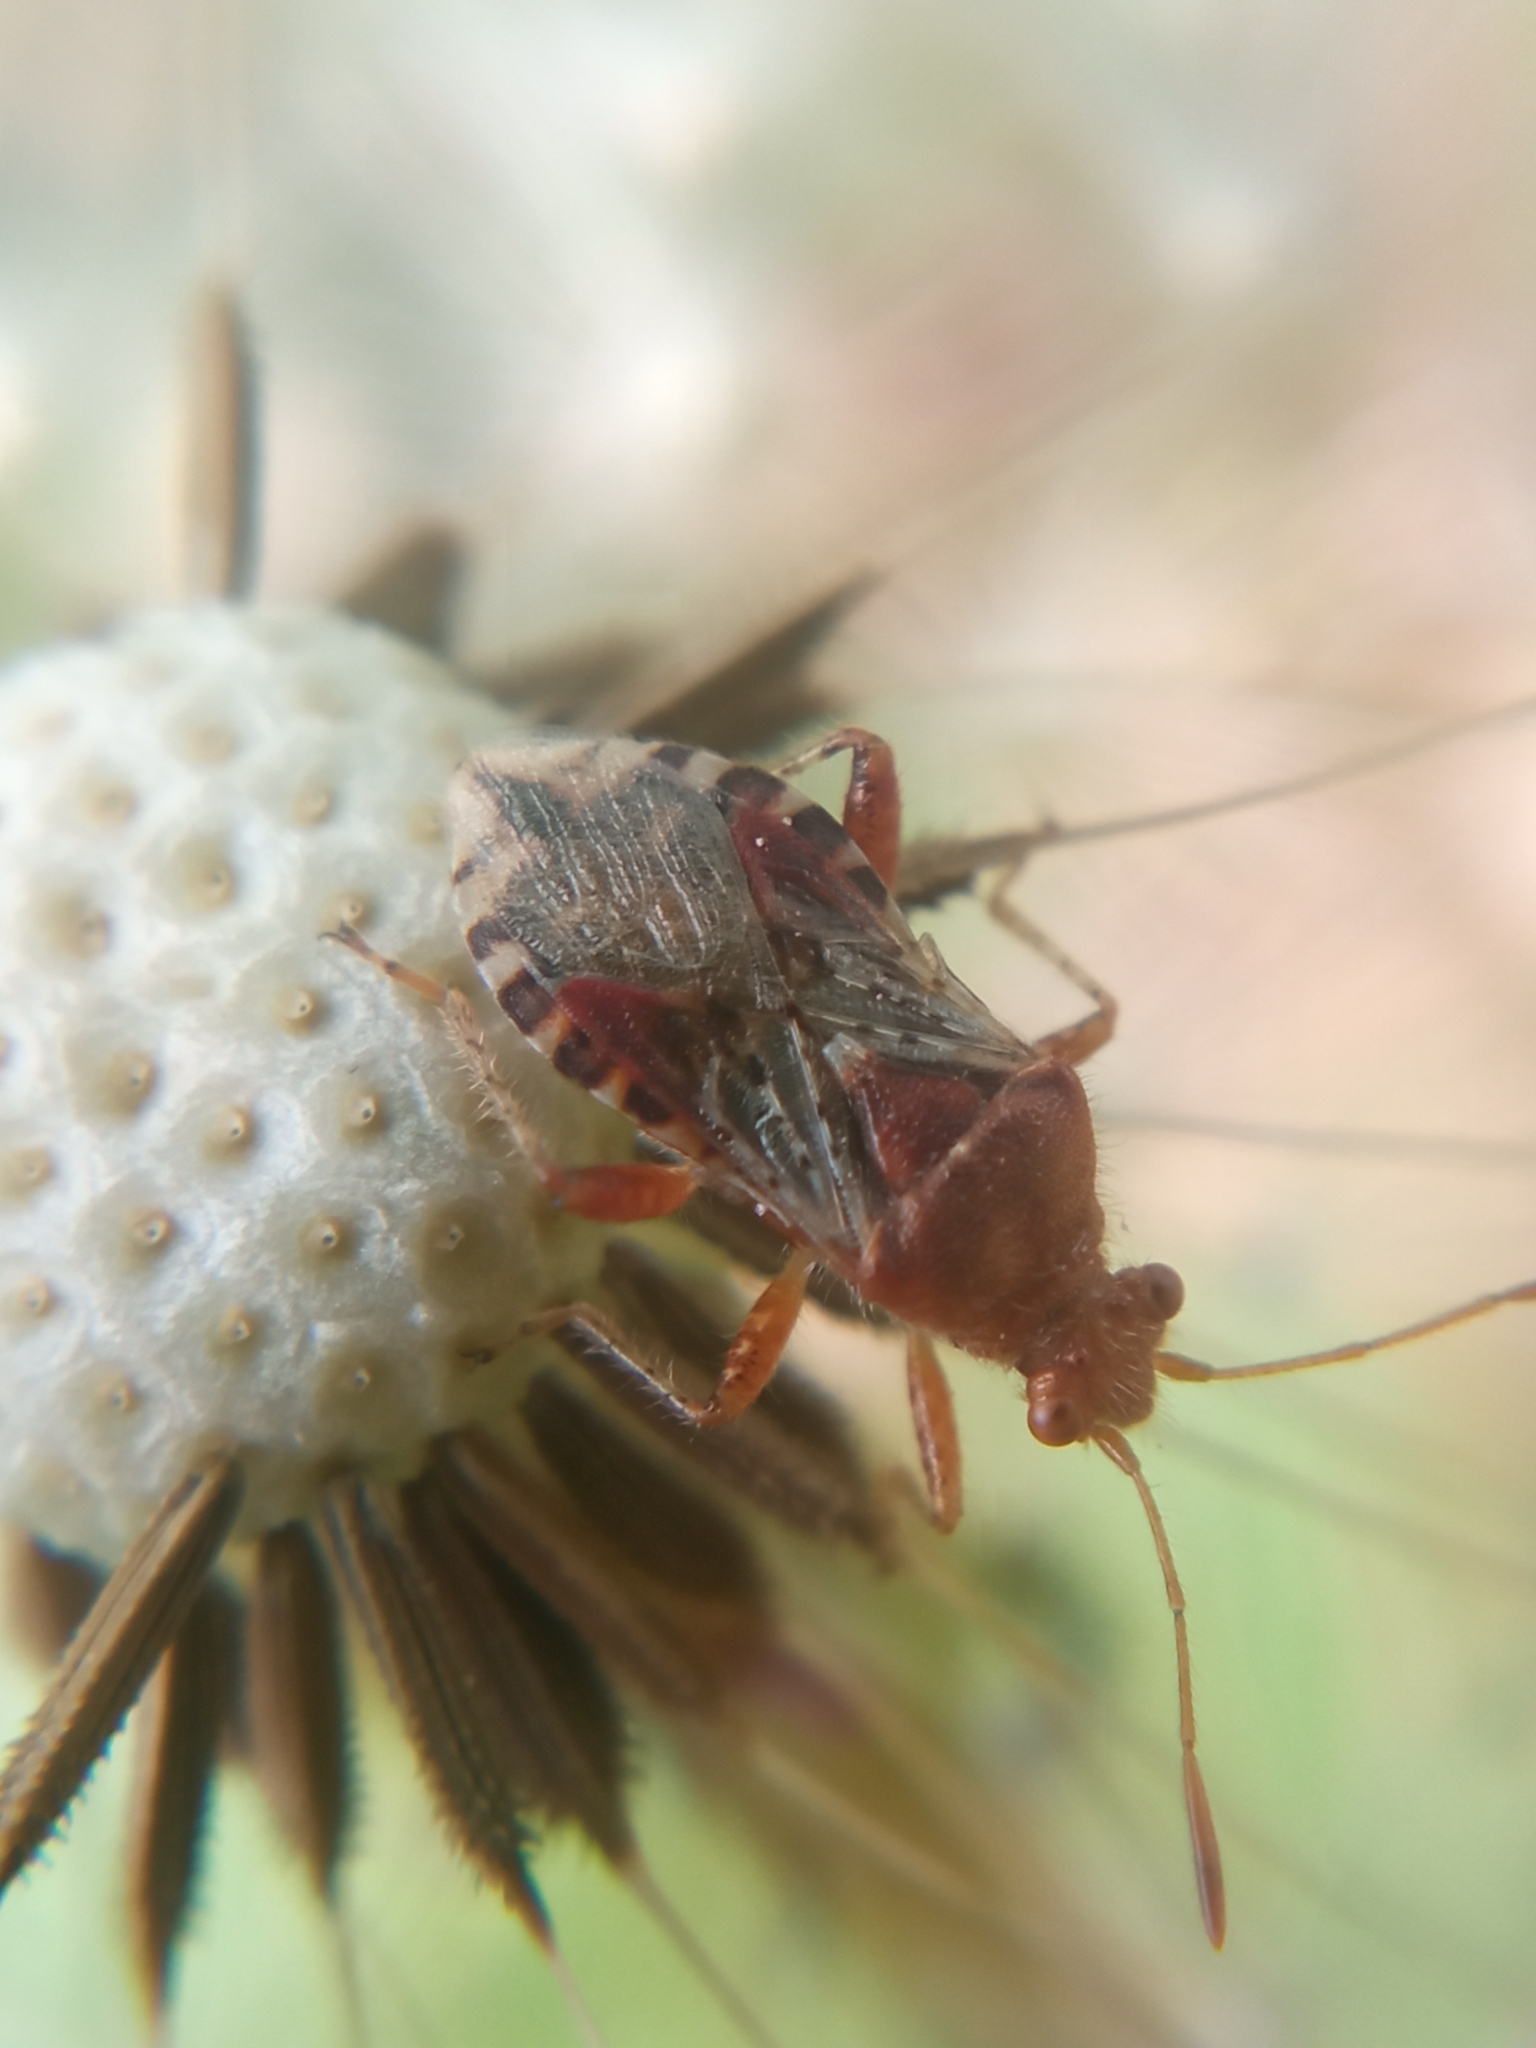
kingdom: Animalia
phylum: Arthropoda
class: Insecta
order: Hemiptera
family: Rhopalidae
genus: Rhopalus
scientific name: Rhopalus subrufus
